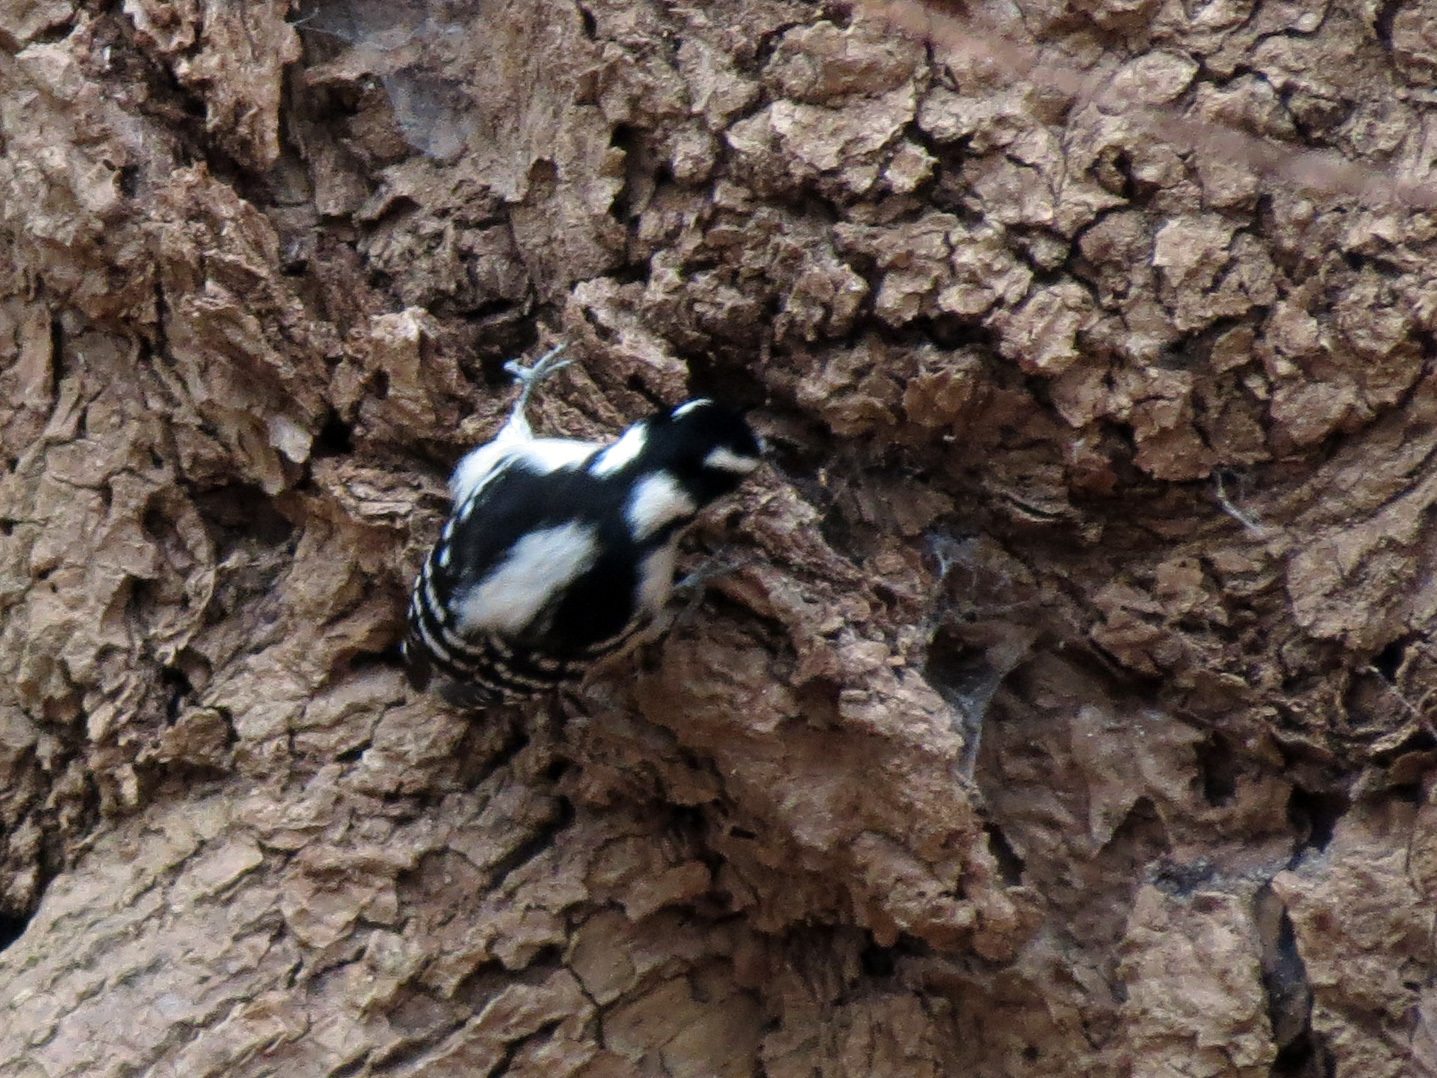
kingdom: Animalia
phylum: Chordata
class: Aves
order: Piciformes
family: Picidae
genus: Dryobates
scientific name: Dryobates pubescens
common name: Downy woodpecker
